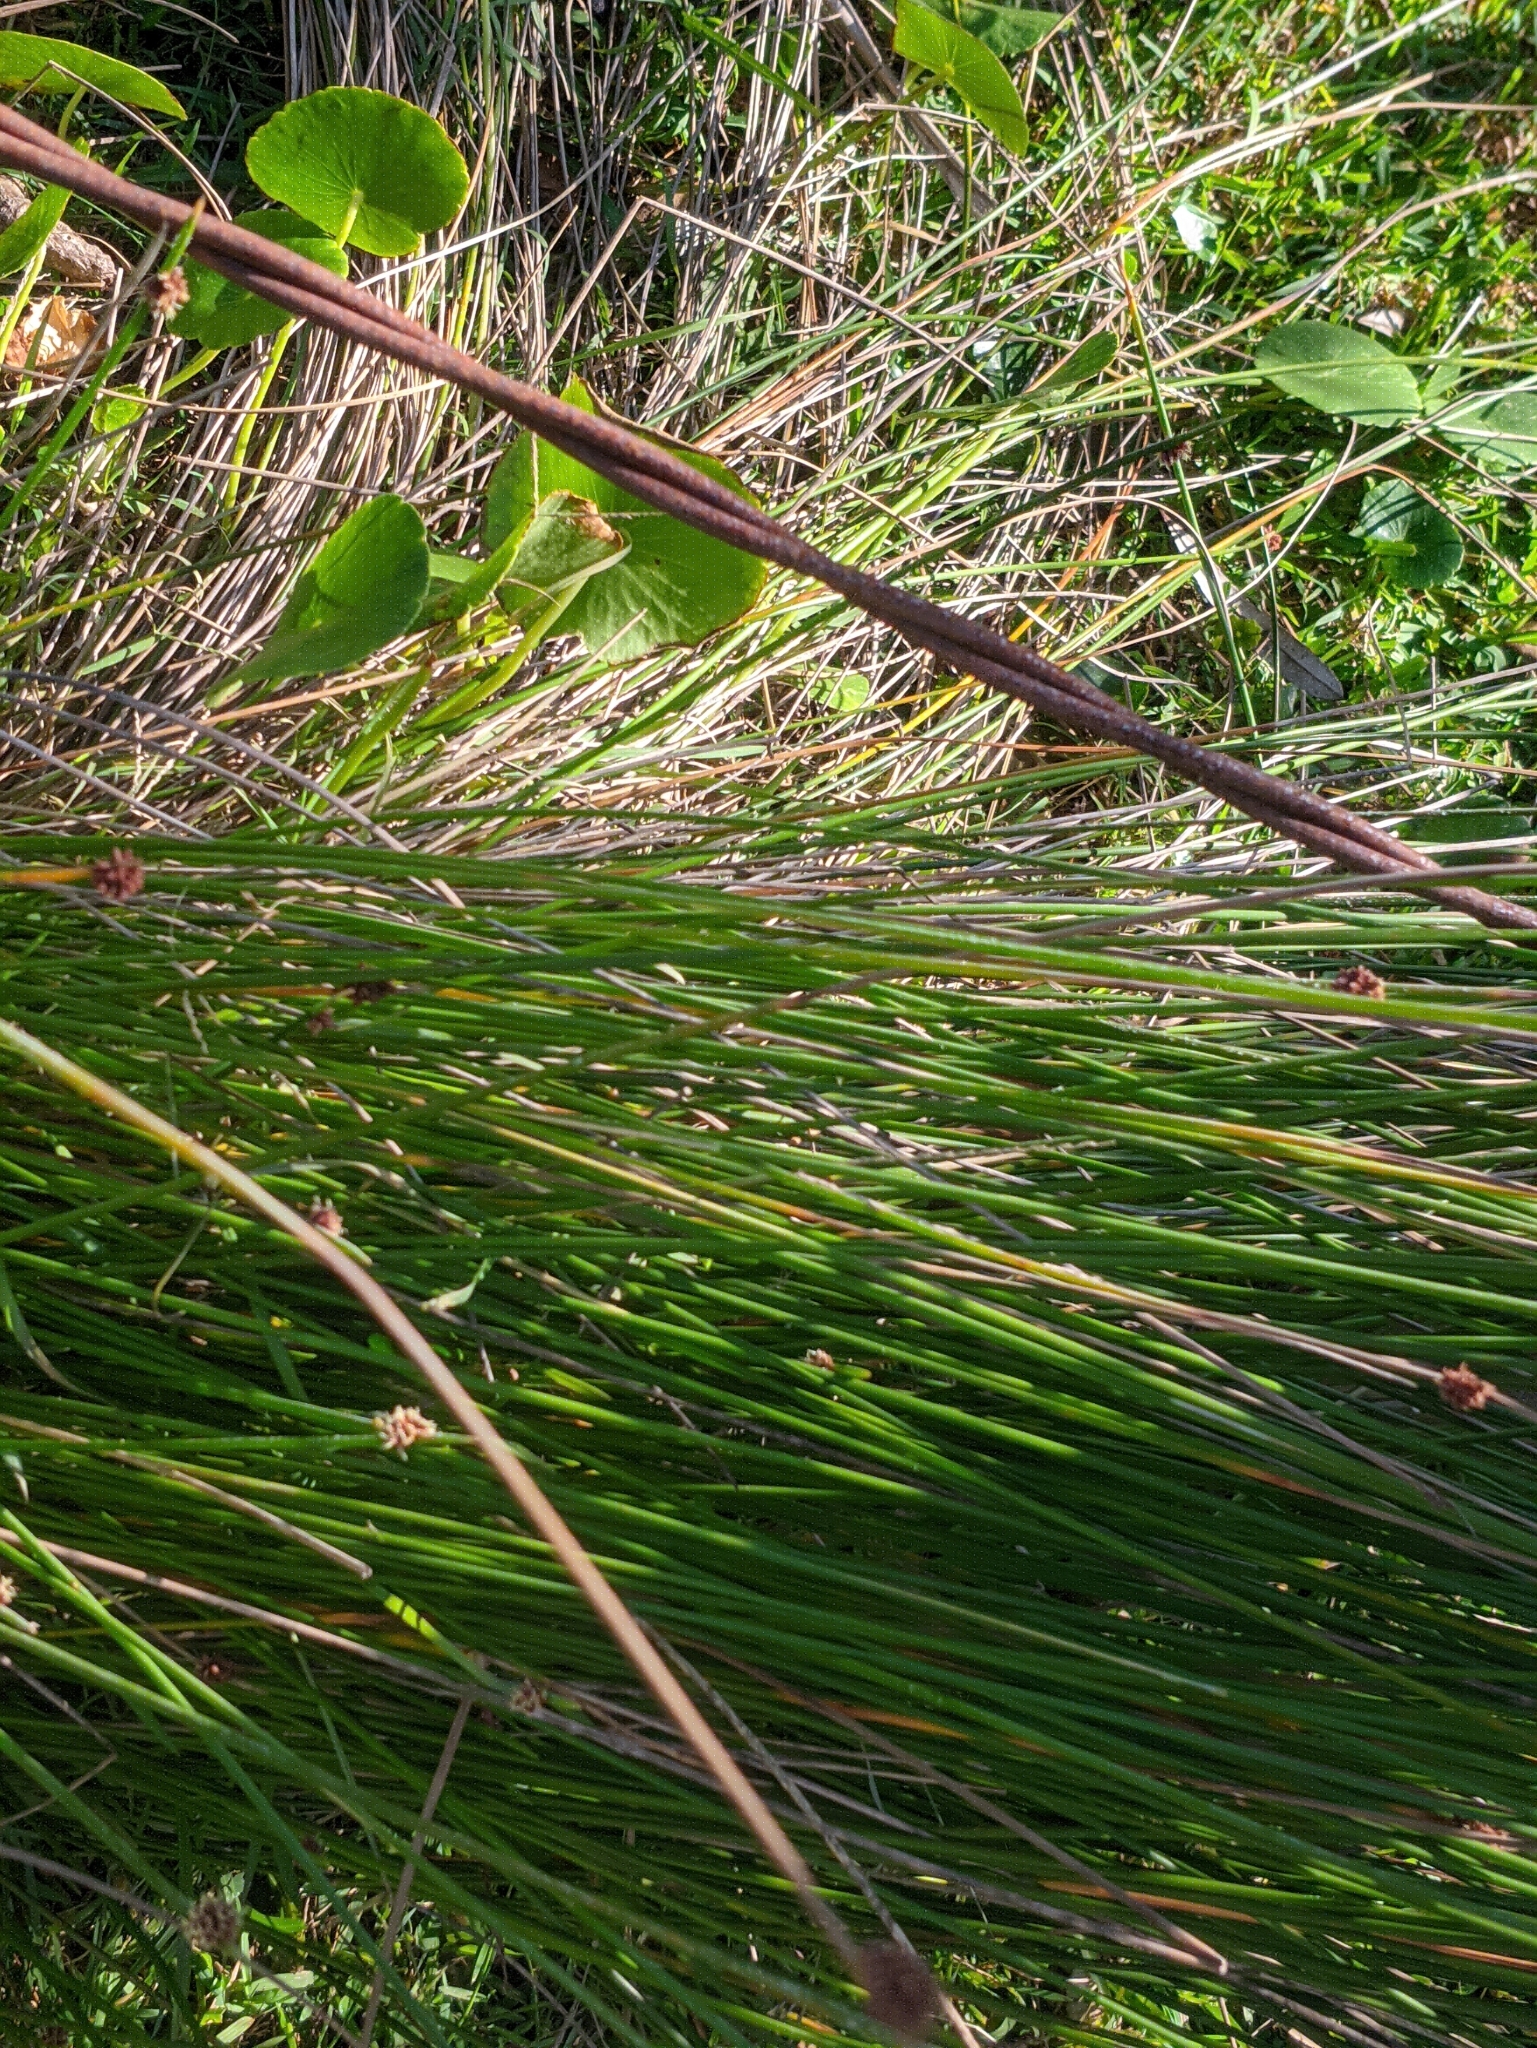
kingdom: Plantae
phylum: Tracheophyta
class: Liliopsida
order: Poales
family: Cyperaceae
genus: Ficinia
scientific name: Ficinia nodosa
